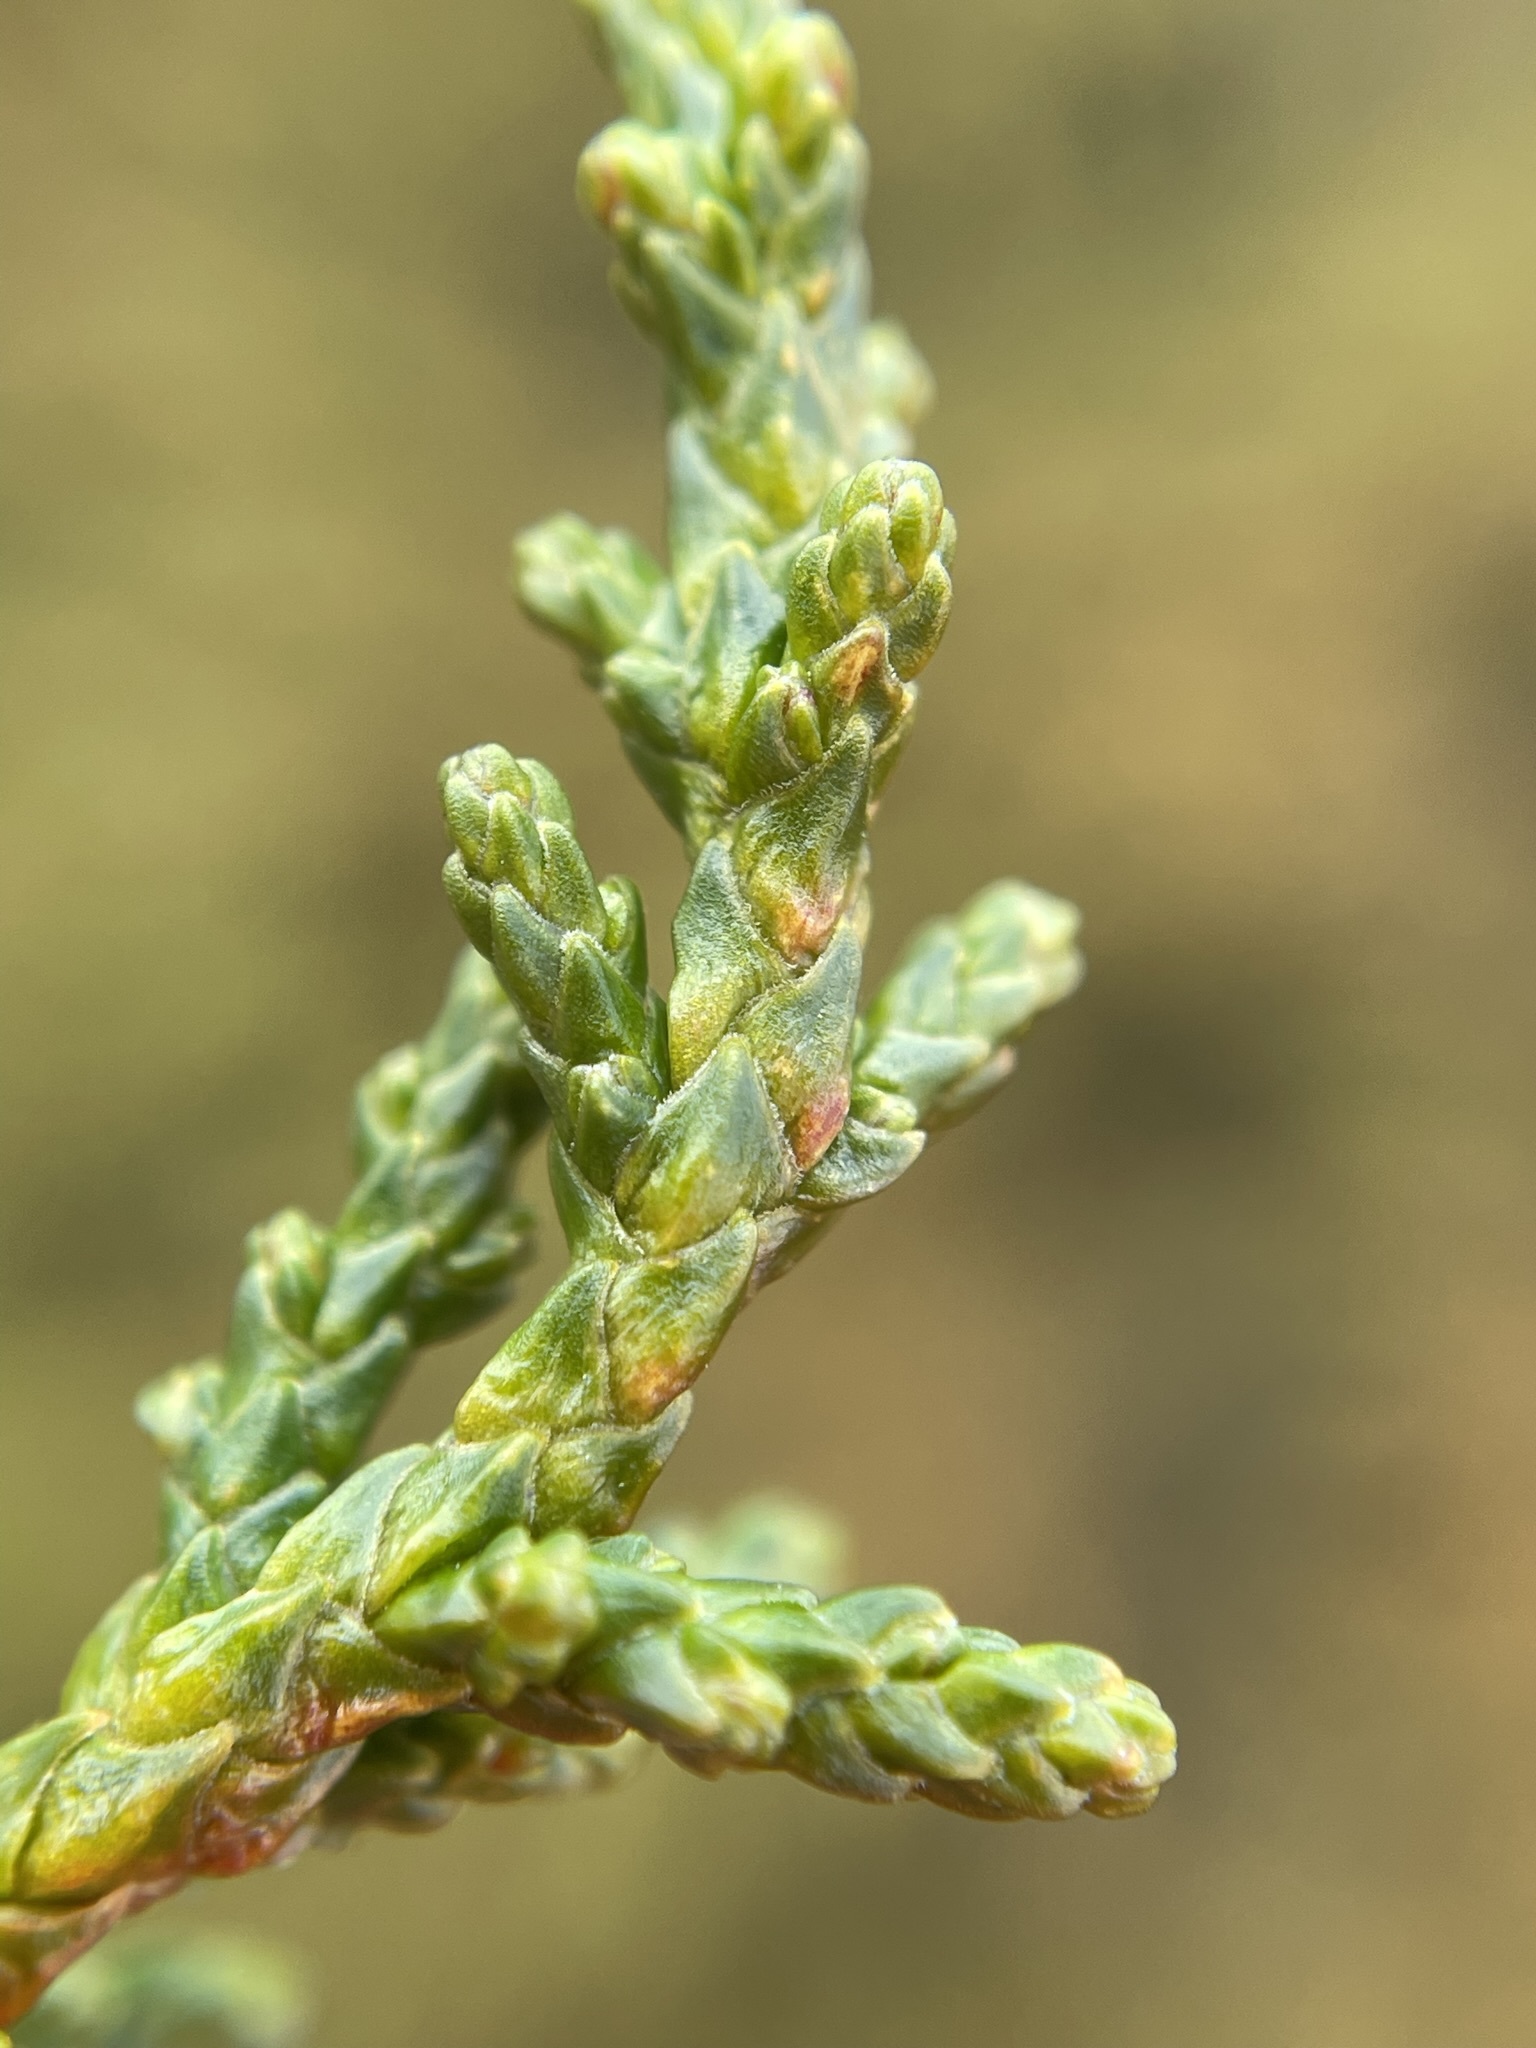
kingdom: Plantae
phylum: Tracheophyta
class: Pinopsida
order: Pinales
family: Podocarpaceae
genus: Pherosphaera
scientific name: Pherosphaera hookeriana
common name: Mount mawson pine
